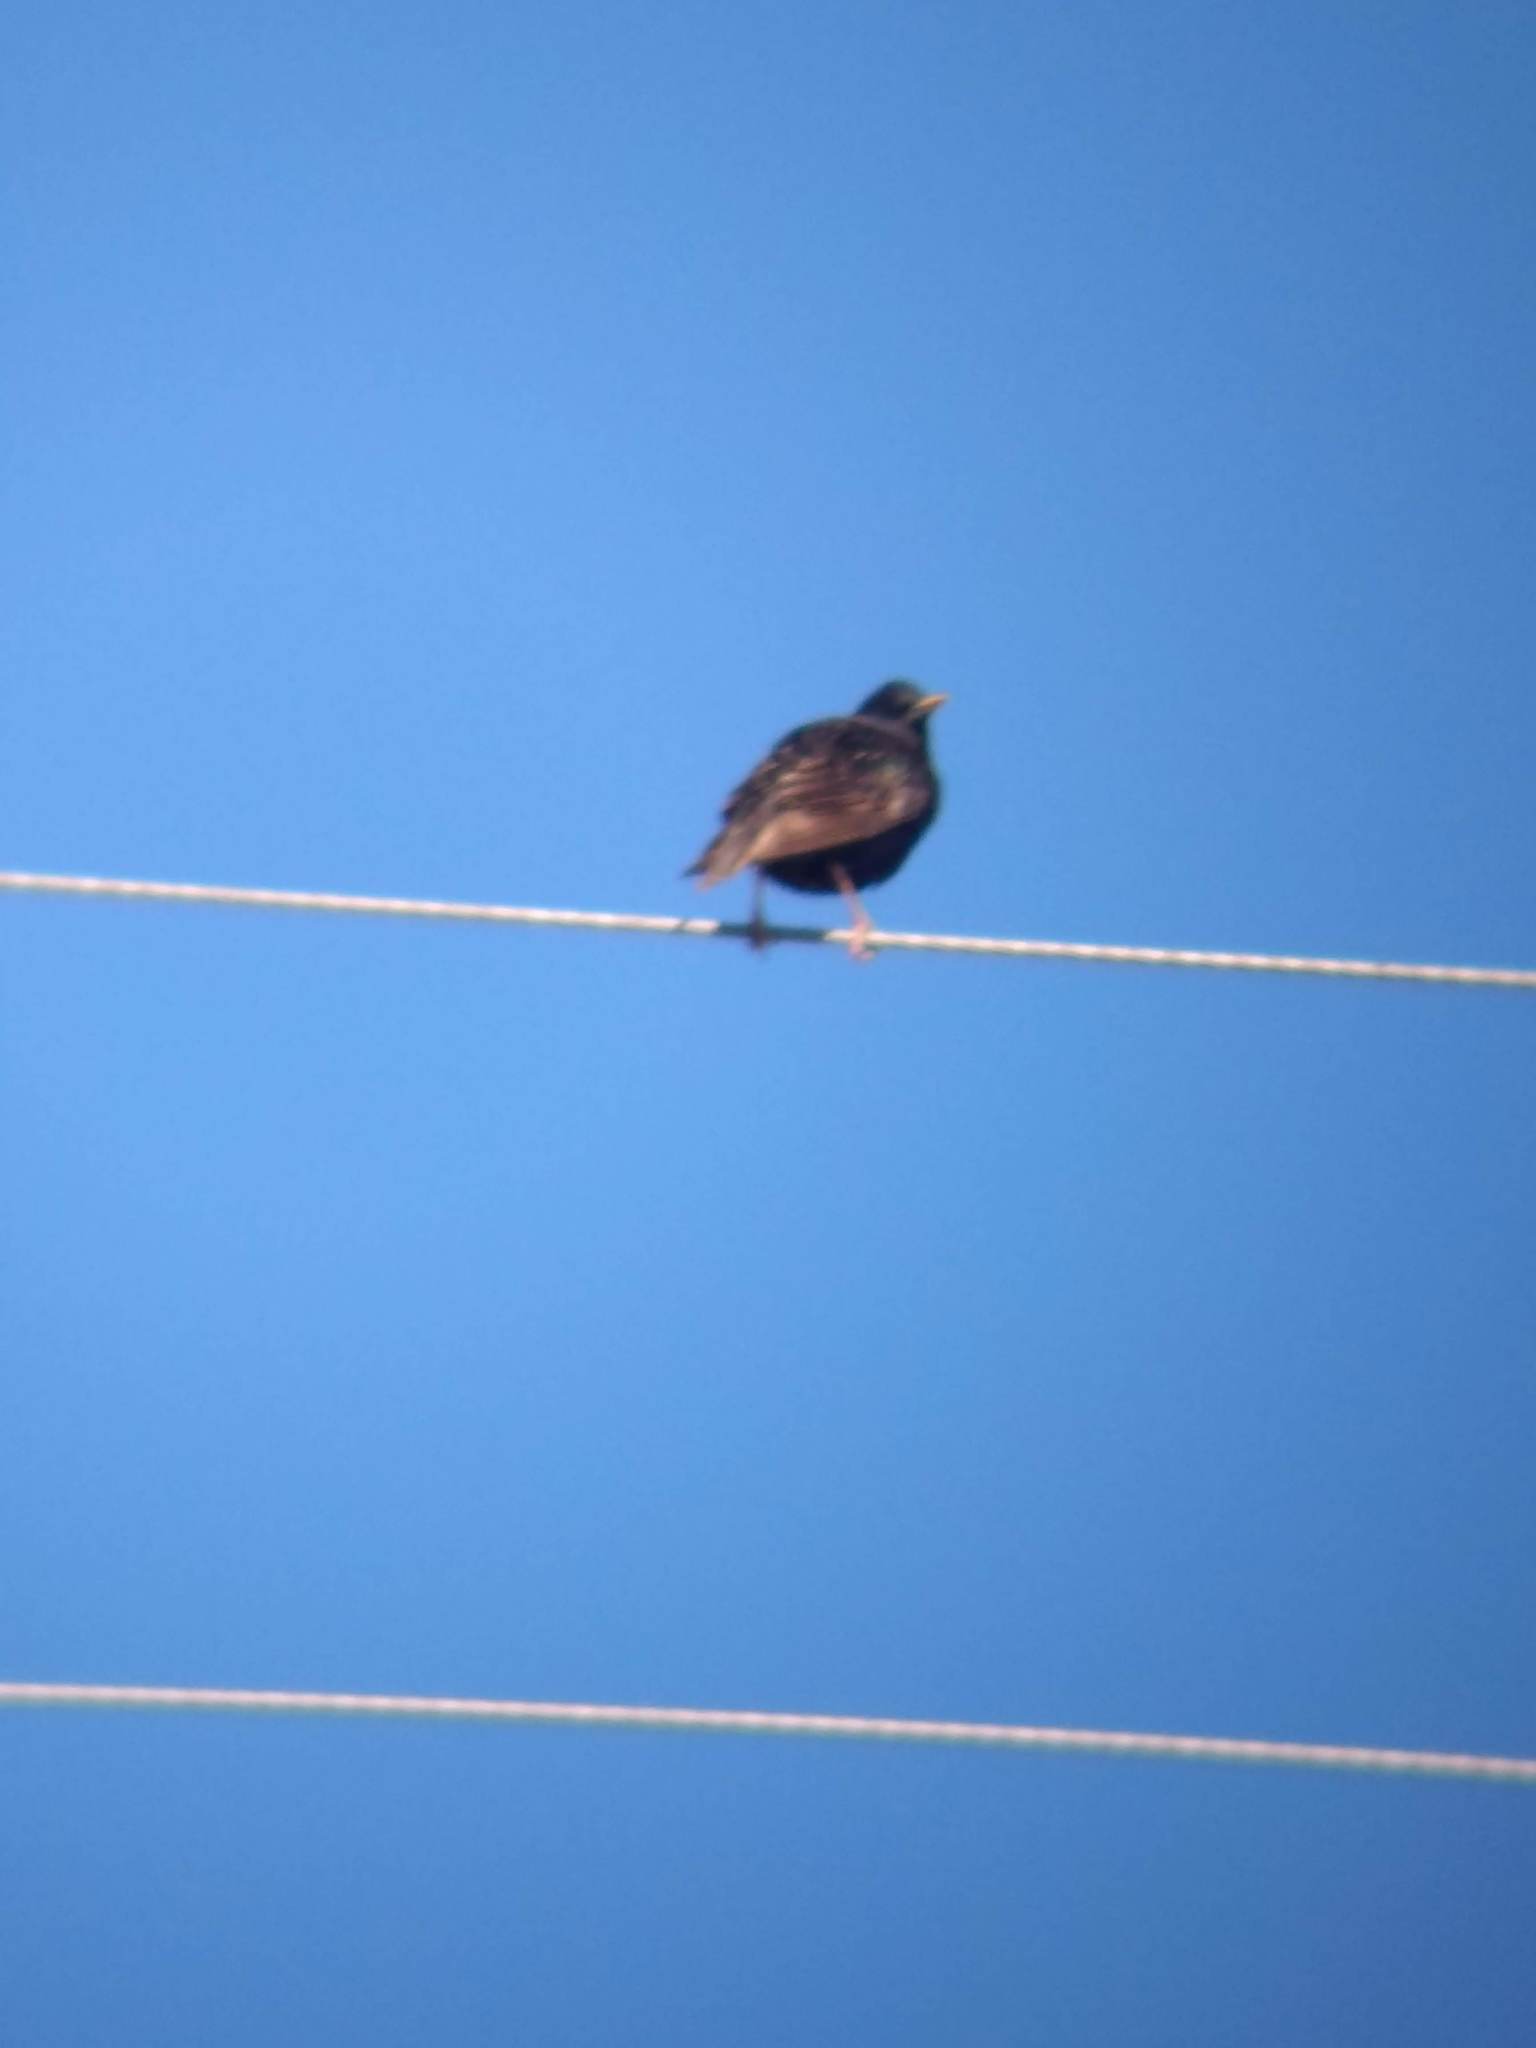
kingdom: Animalia
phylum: Chordata
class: Aves
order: Passeriformes
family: Sturnidae
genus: Sturnus
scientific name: Sturnus vulgaris
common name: Common starling
